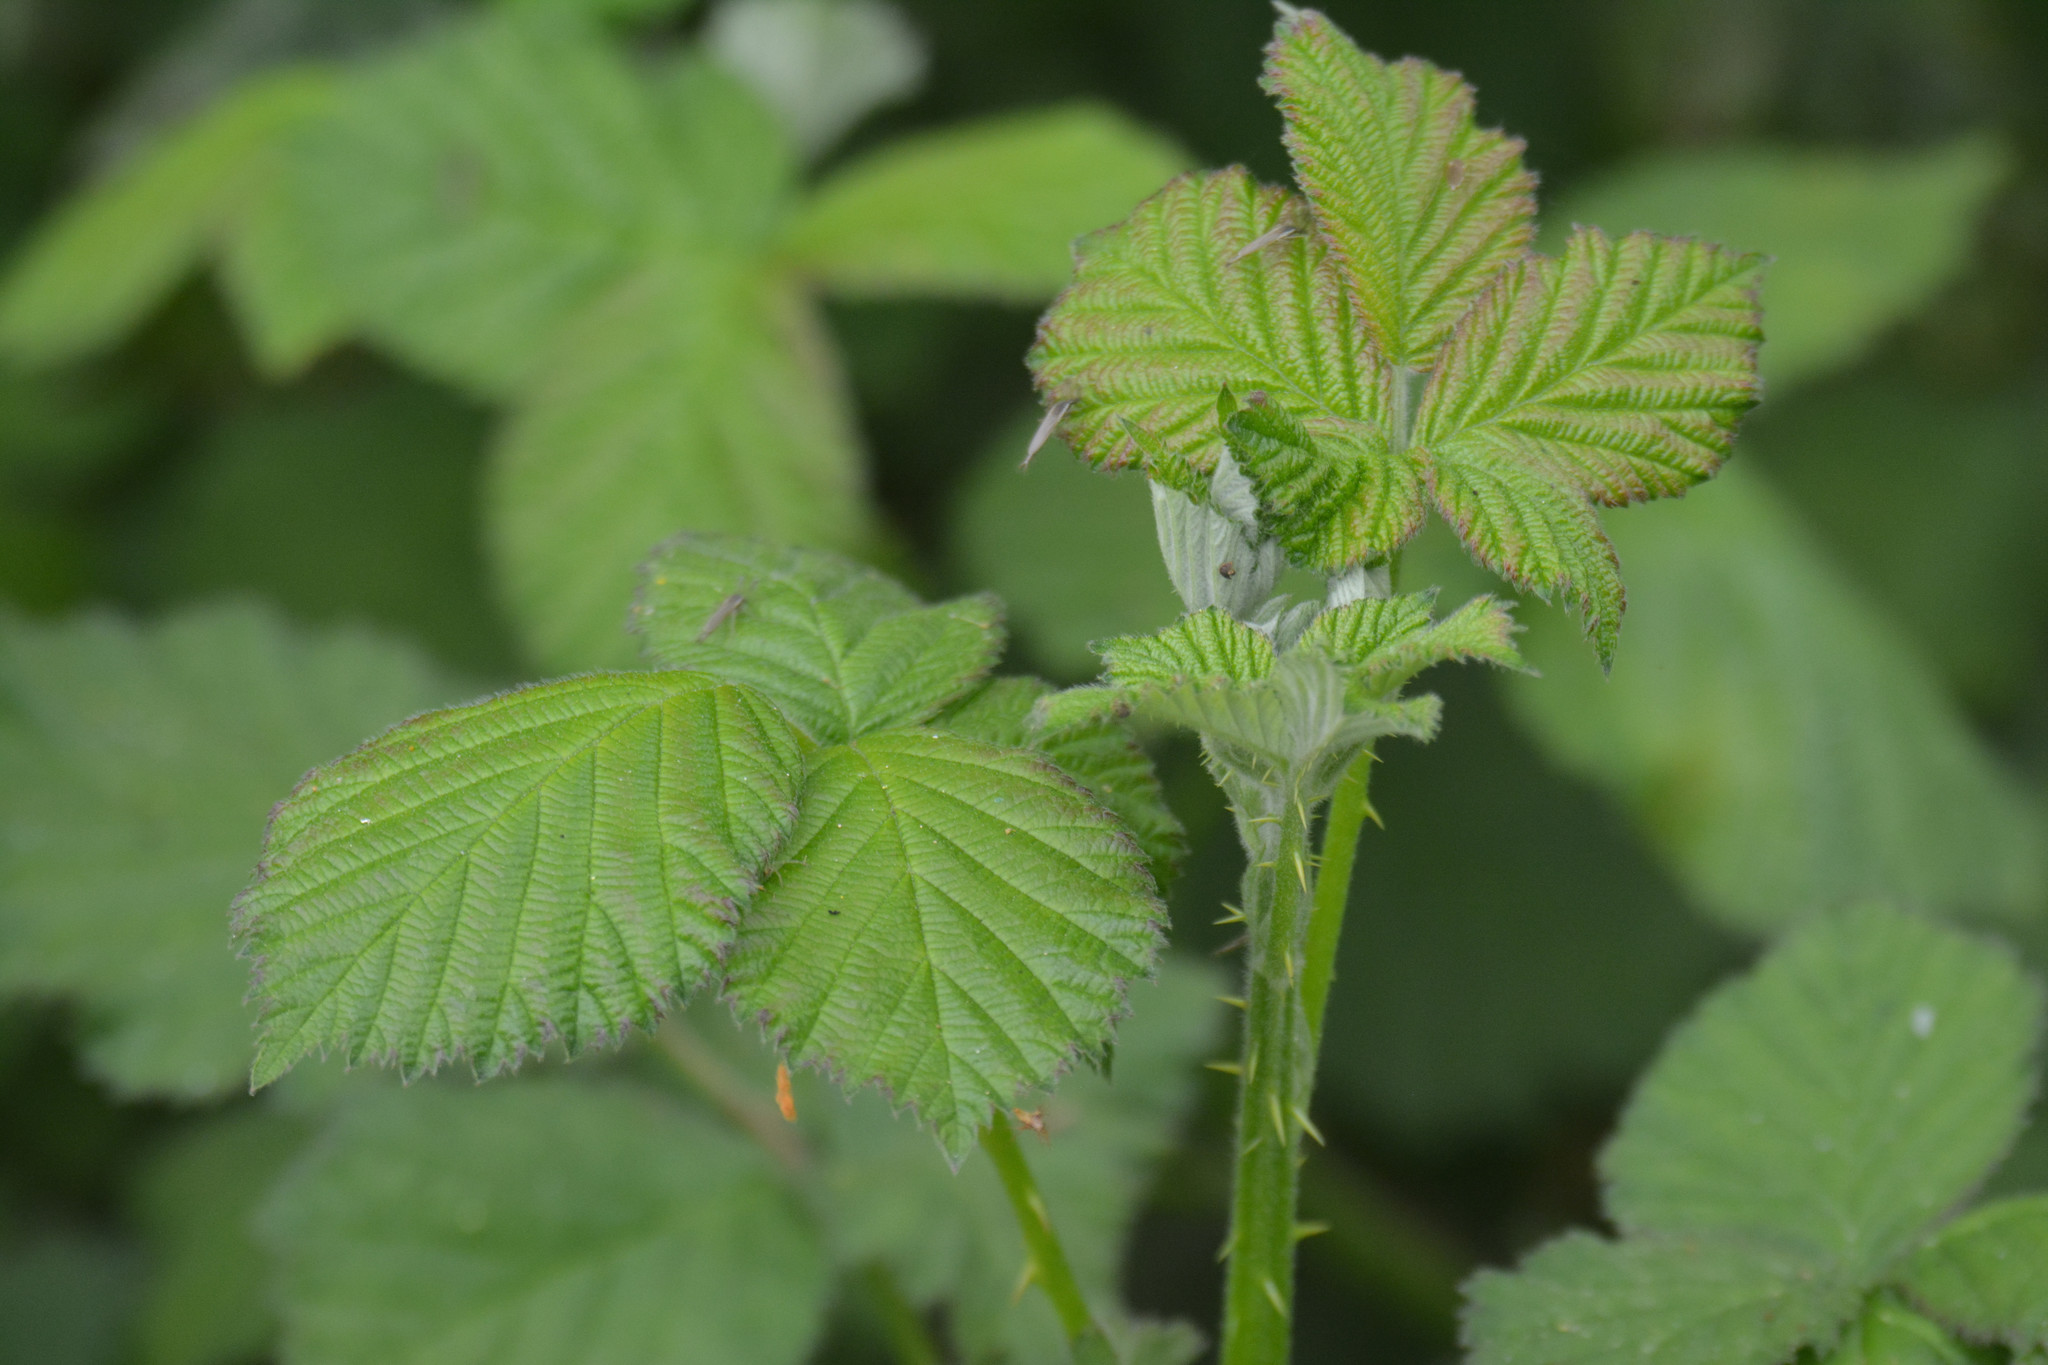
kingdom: Plantae
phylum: Tracheophyta
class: Magnoliopsida
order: Rosales
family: Rosaceae
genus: Rubus
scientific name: Rubus
